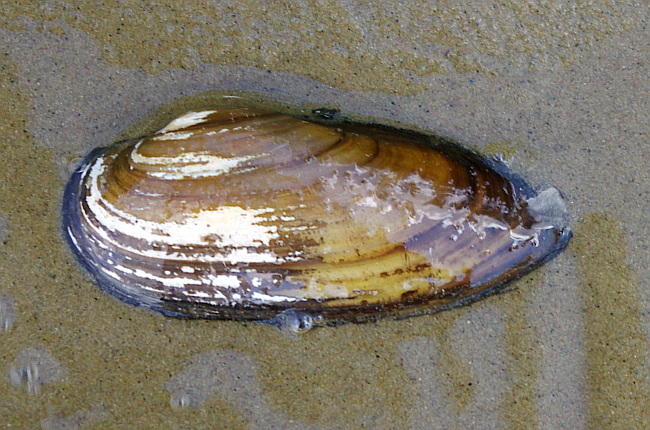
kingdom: Animalia
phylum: Mollusca
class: Bivalvia
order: Unionida
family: Unionidae
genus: Unio
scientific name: Unio pictorum
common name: Painter's mussel
